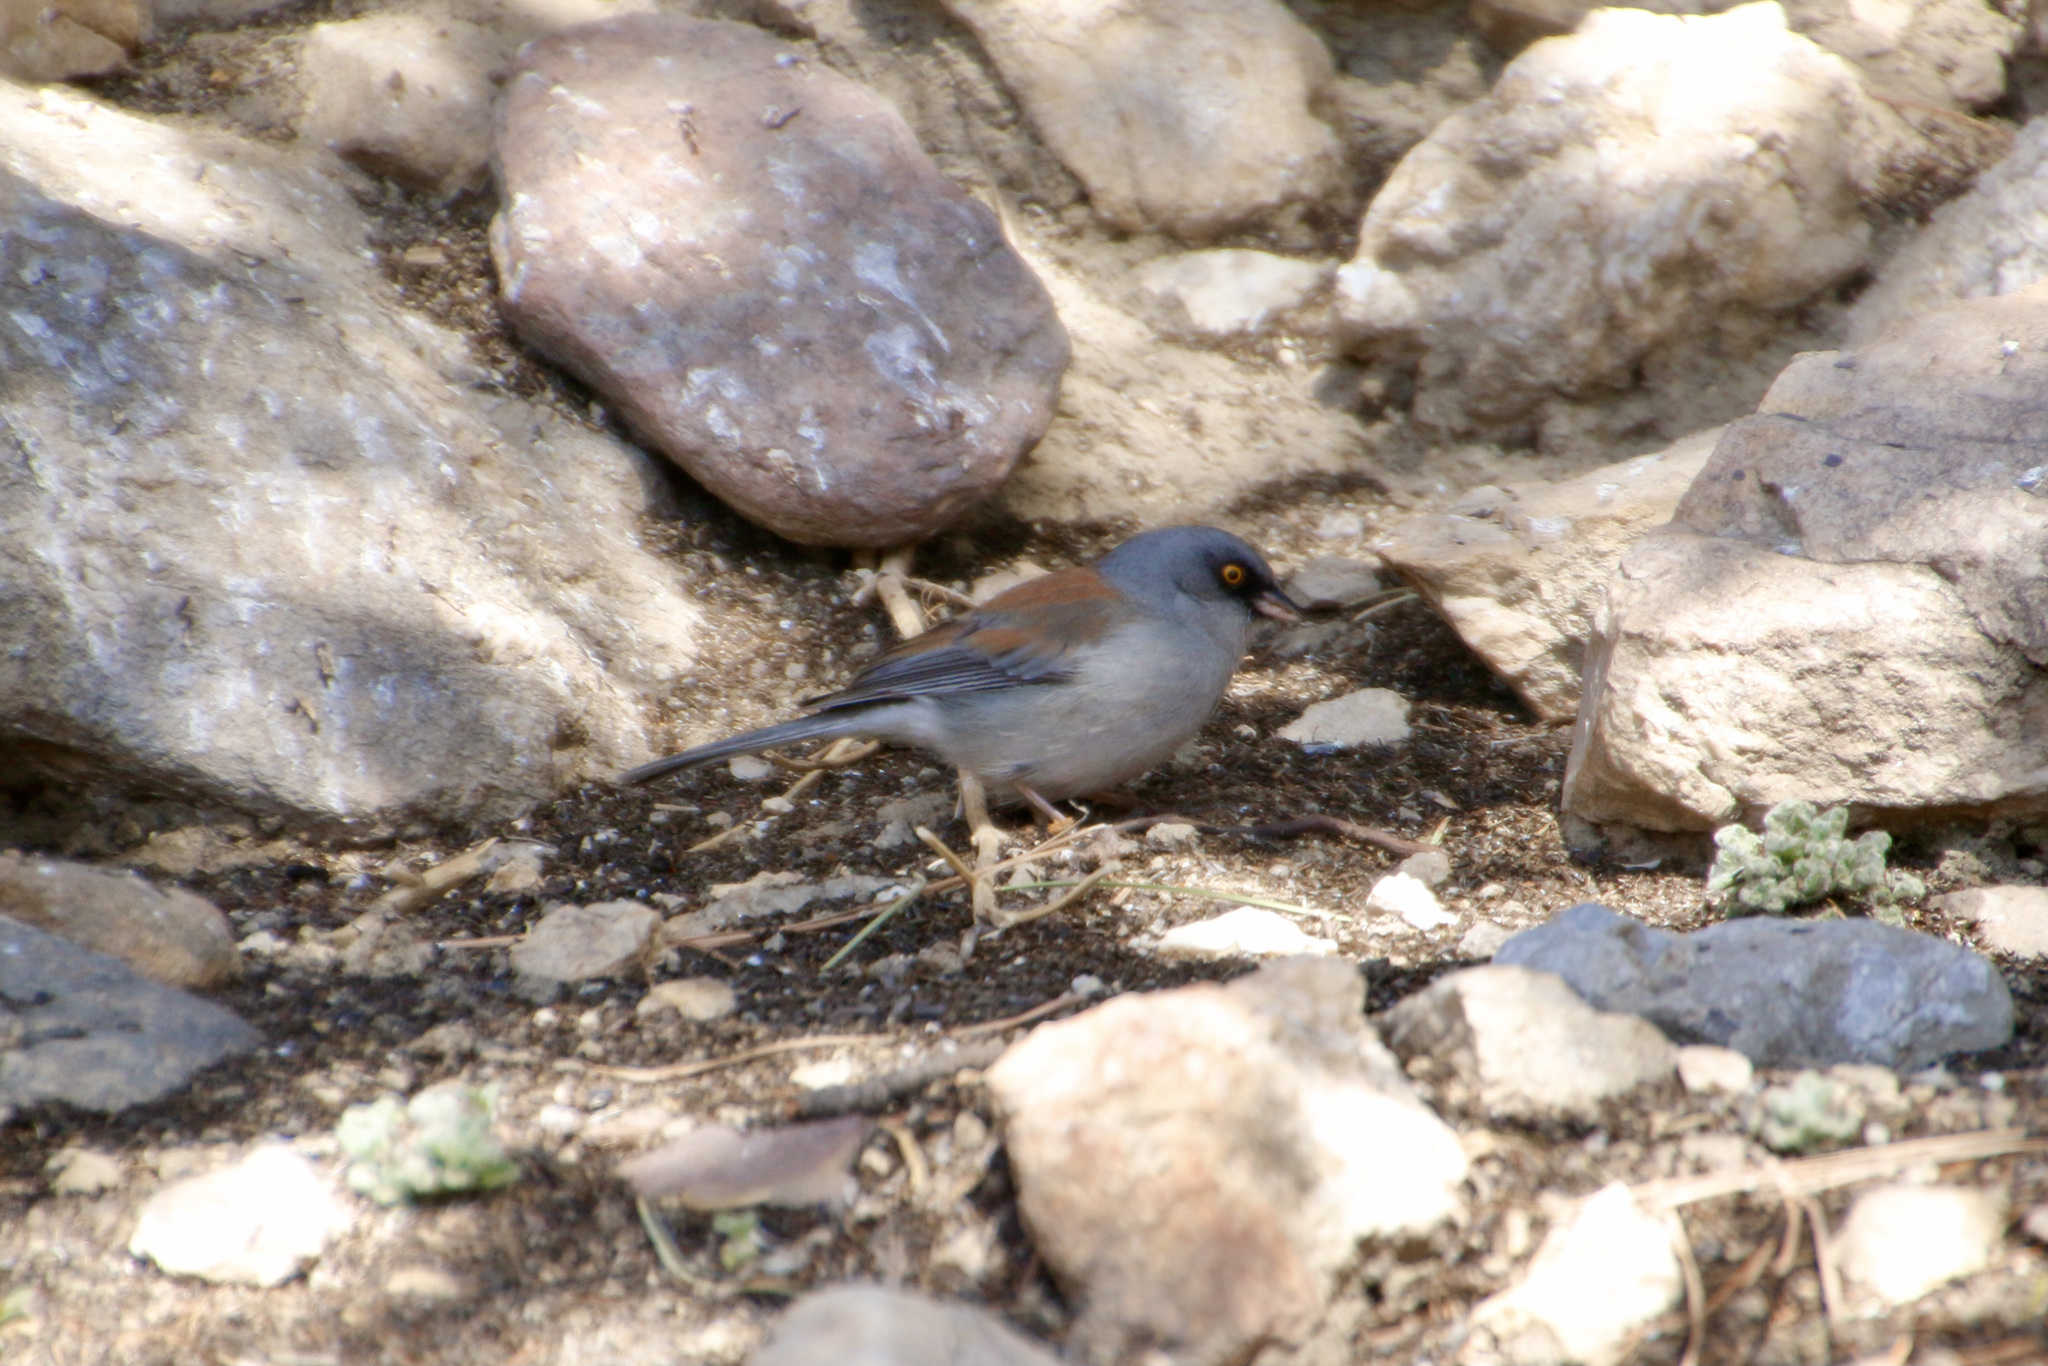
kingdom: Animalia
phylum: Chordata
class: Aves
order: Passeriformes
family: Passerellidae
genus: Junco
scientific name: Junco phaeonotus
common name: Yellow-eyed junco
